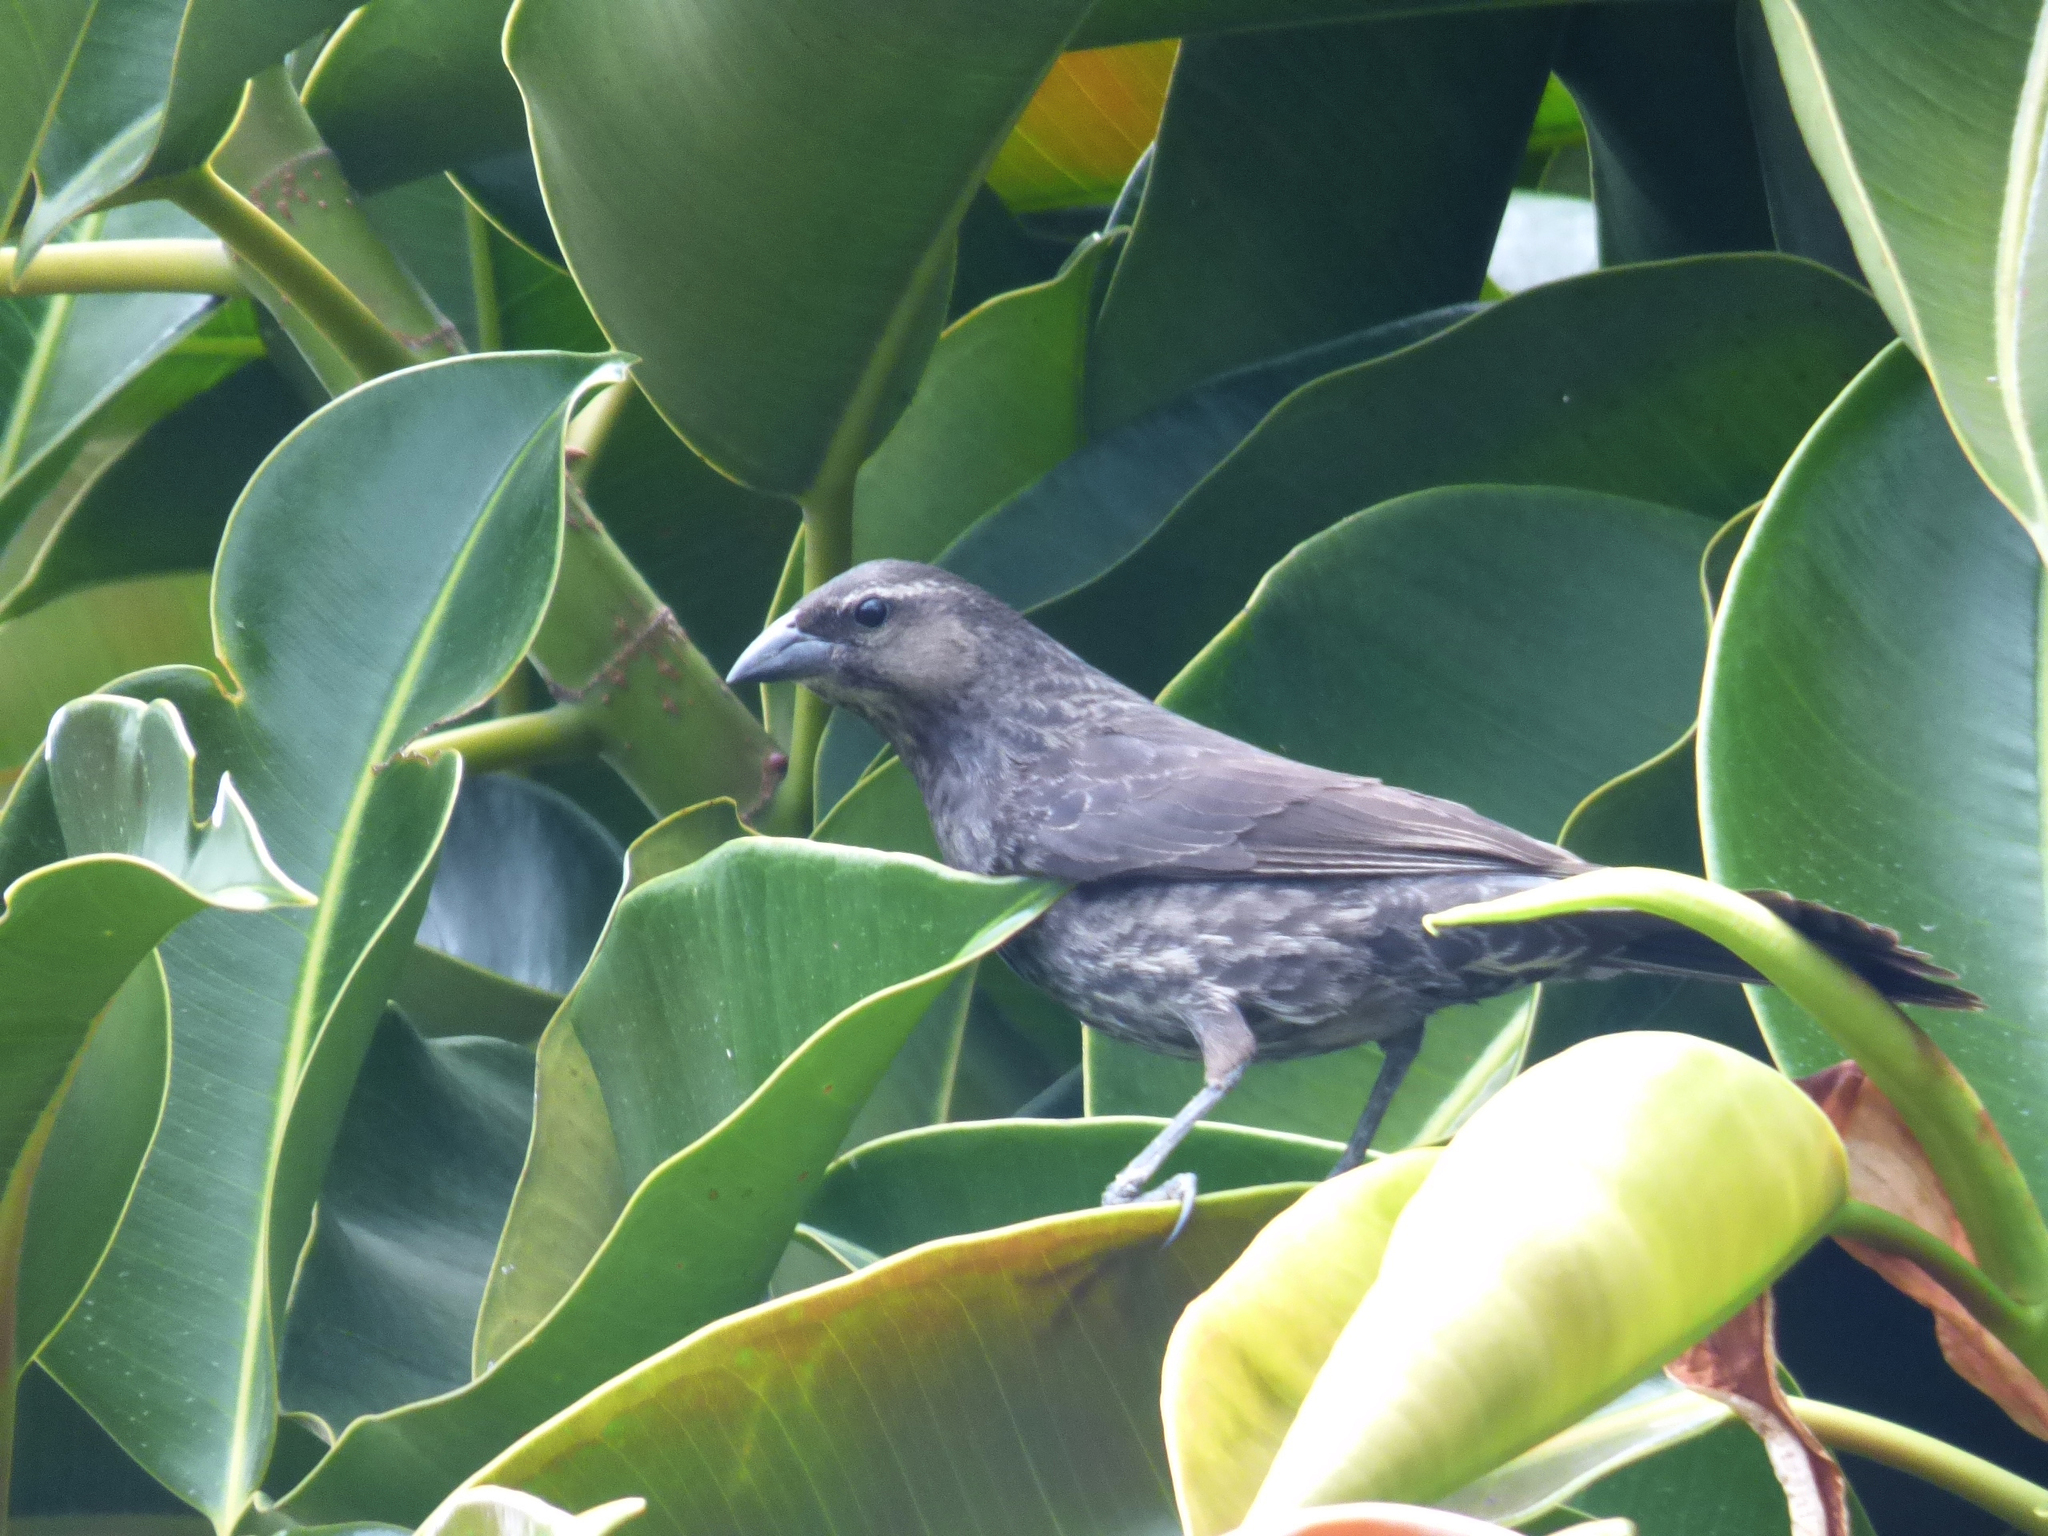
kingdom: Animalia
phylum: Chordata
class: Aves
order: Passeriformes
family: Icteridae
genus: Molothrus
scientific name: Molothrus bonariensis
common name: Shiny cowbird
